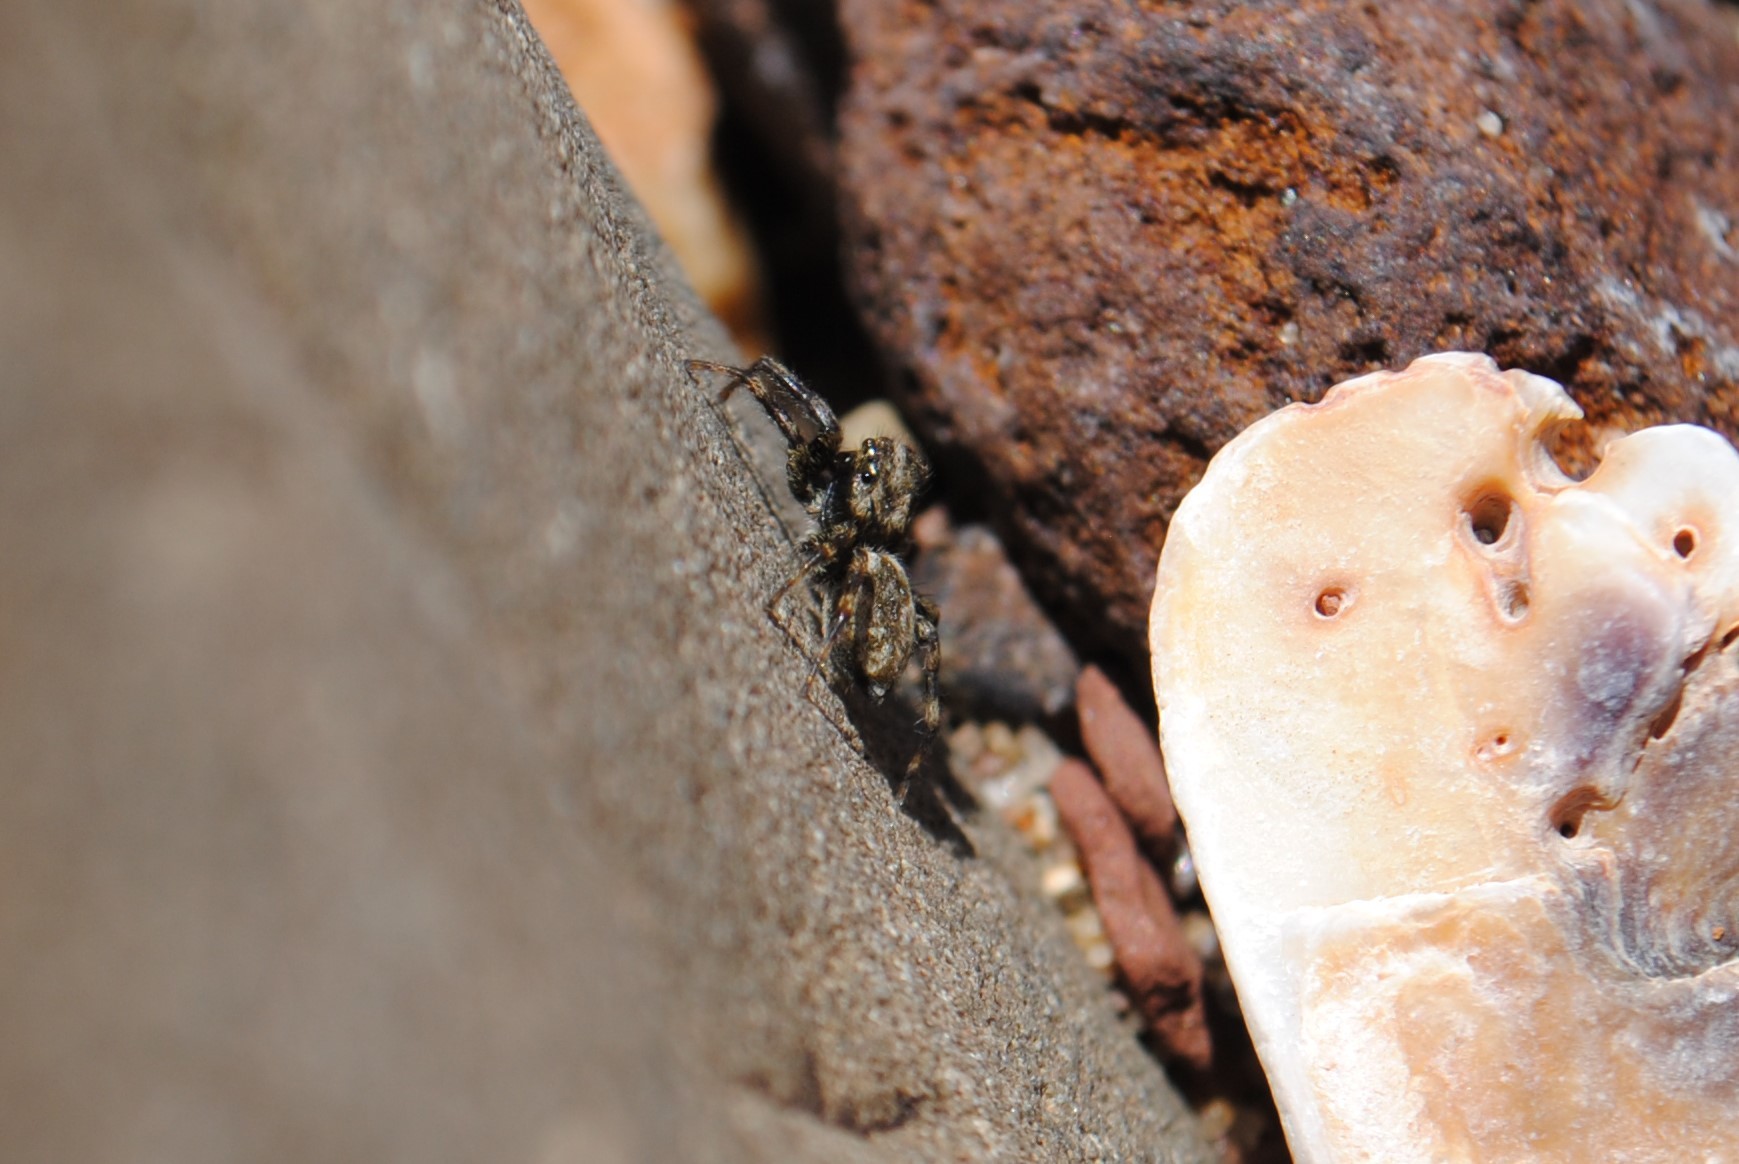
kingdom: Animalia
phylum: Arthropoda
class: Arachnida
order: Araneae
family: Salticidae
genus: Hakka
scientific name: Hakka himeshimensis
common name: Jumping spider
